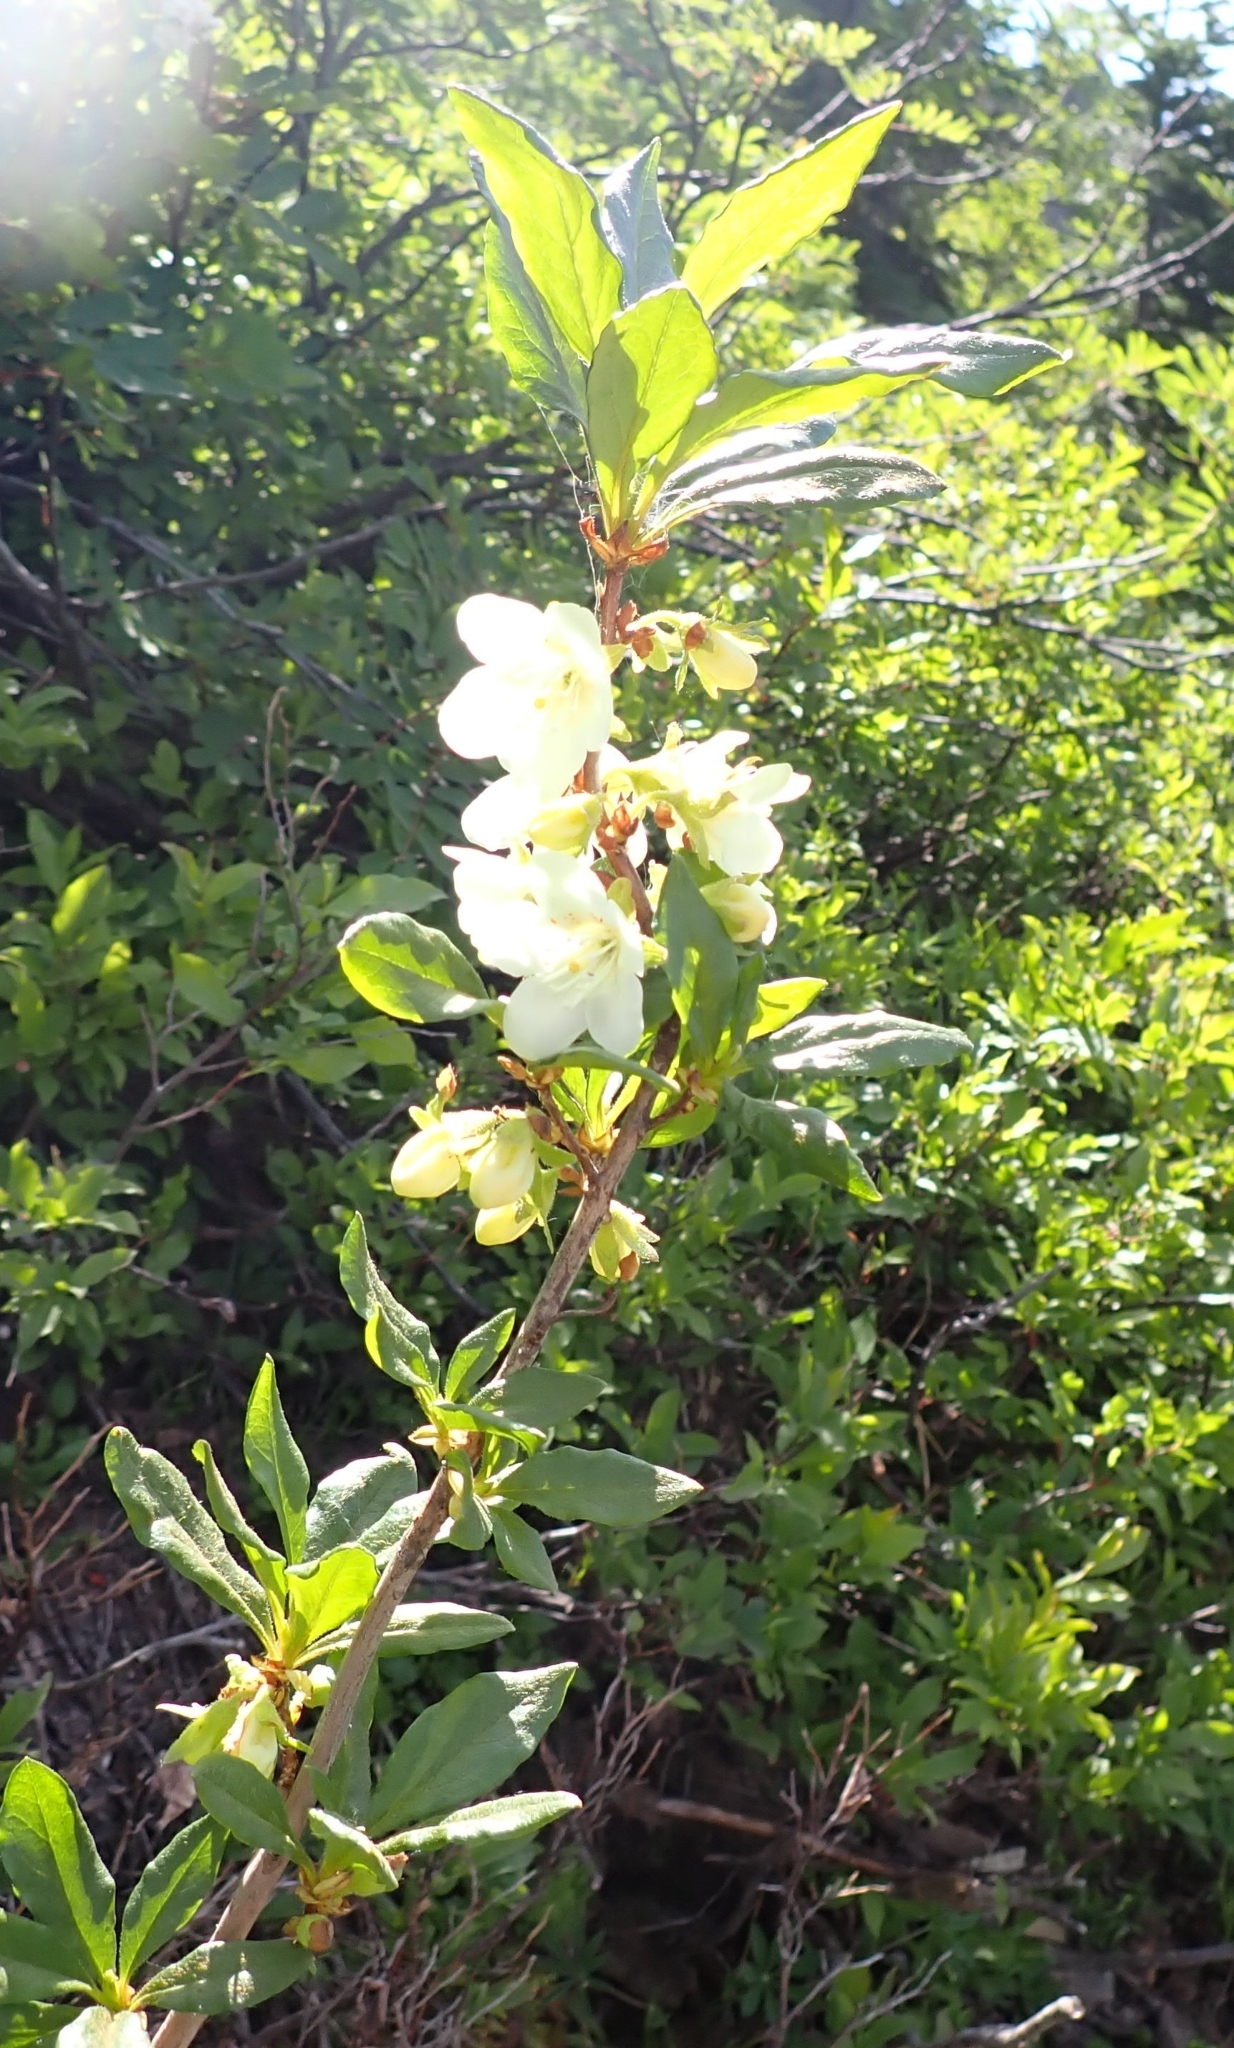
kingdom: Plantae
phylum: Tracheophyta
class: Magnoliopsida
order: Ericales
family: Ericaceae
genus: Rhododendron
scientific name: Rhododendron albiflorum
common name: White rhododendron
